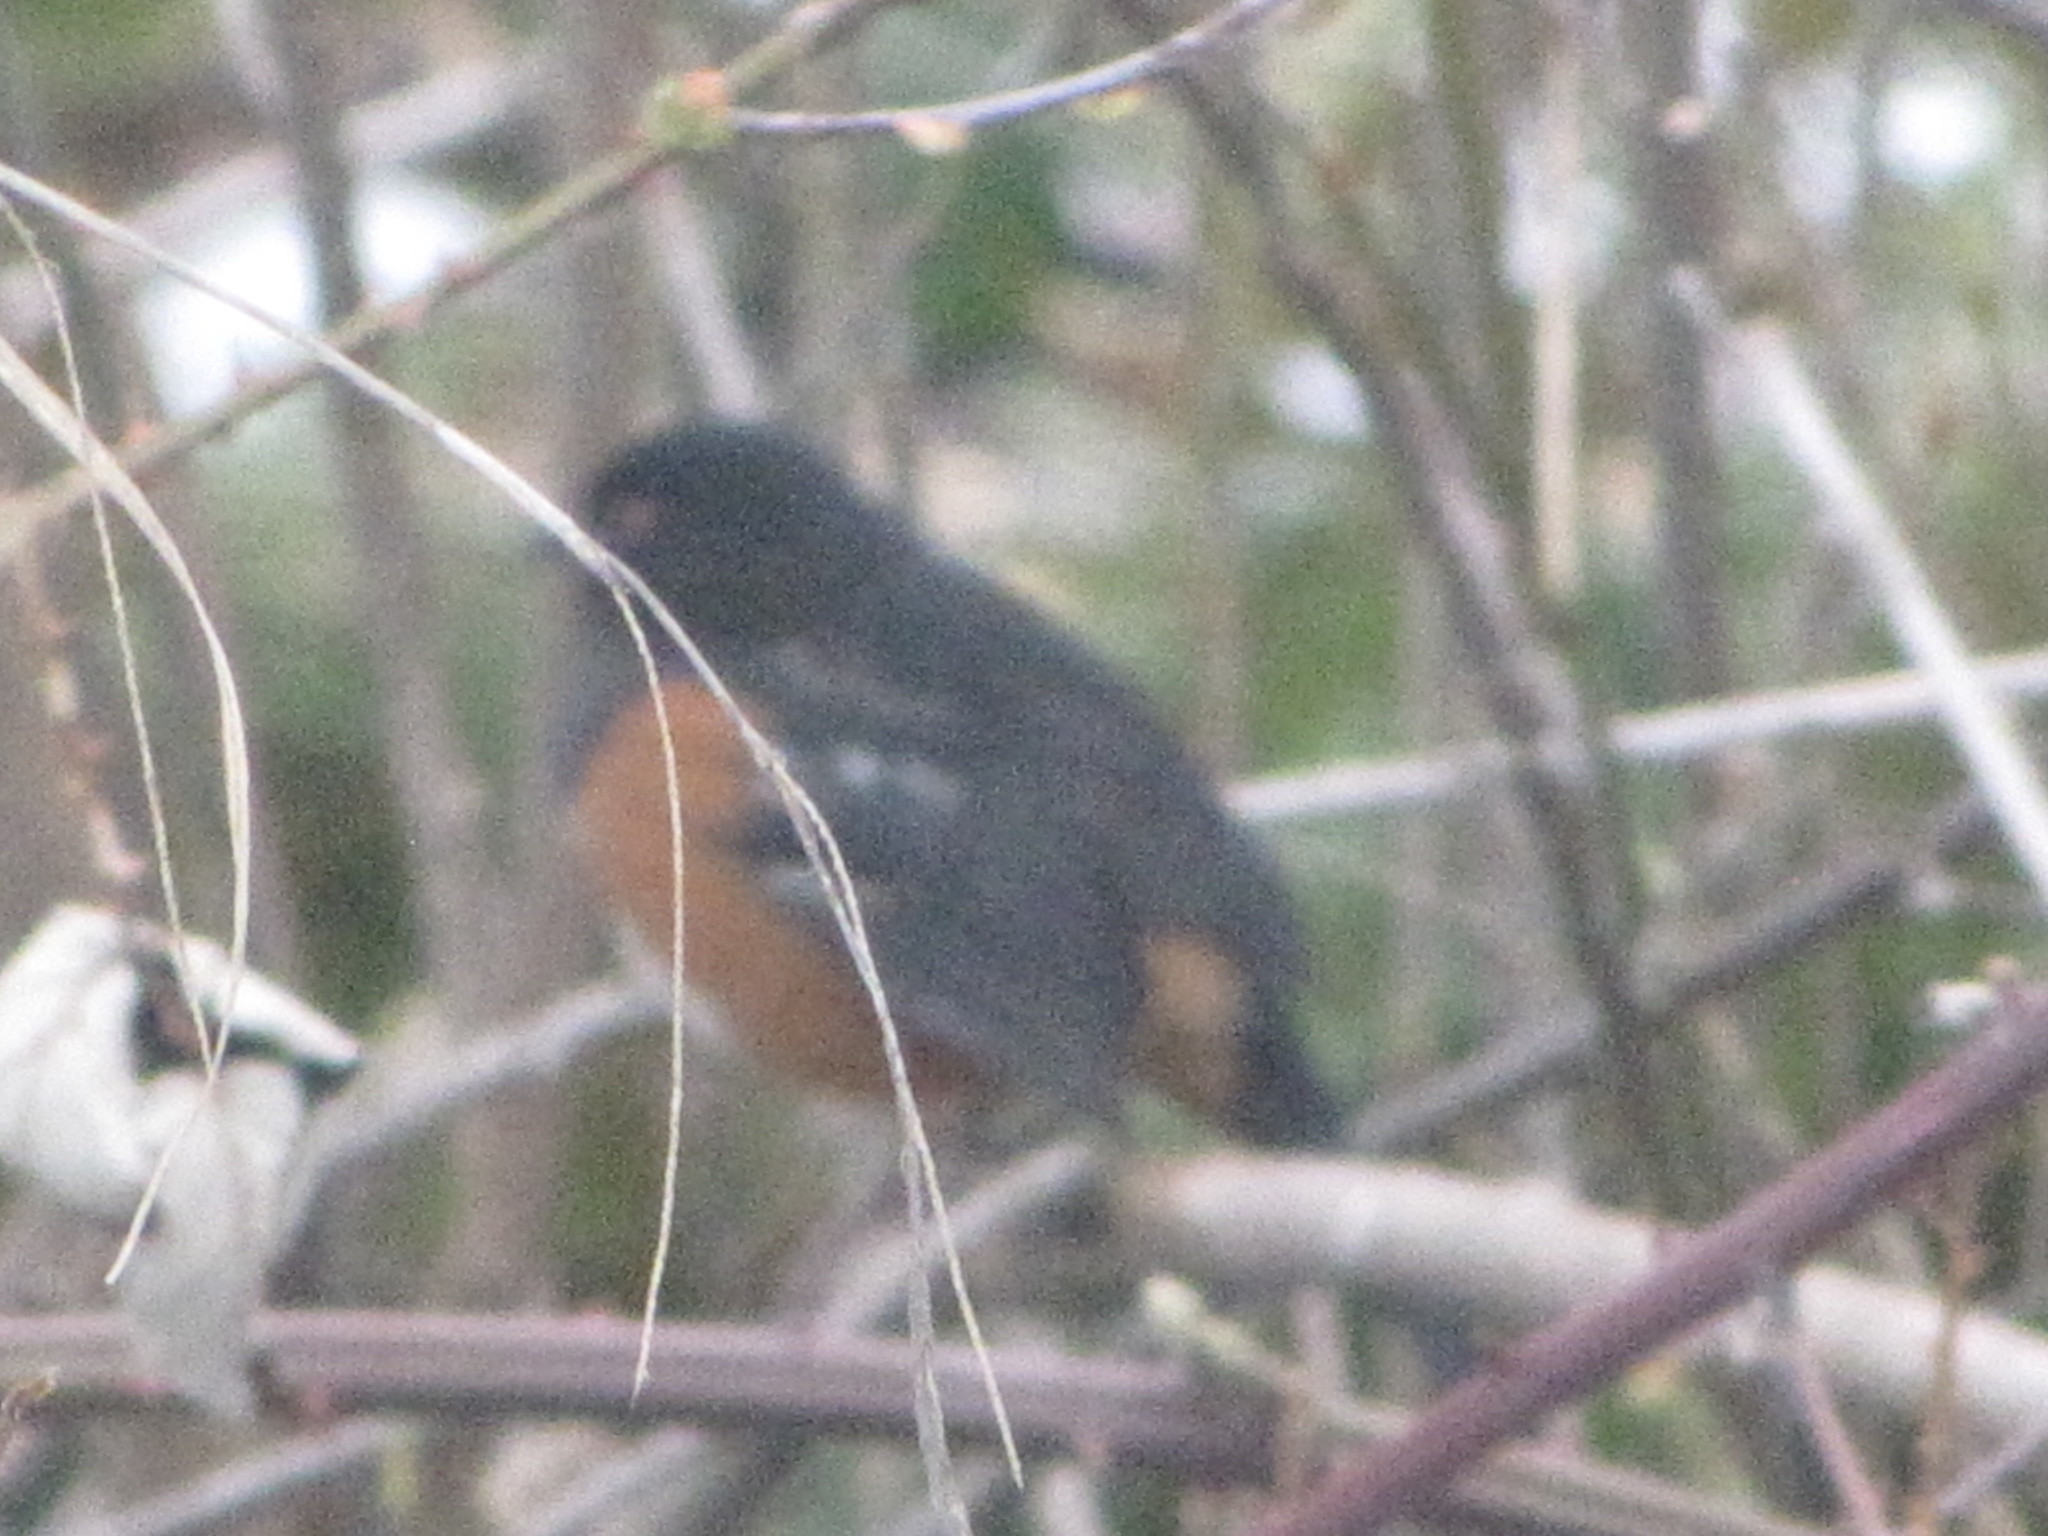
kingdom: Animalia
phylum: Chordata
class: Aves
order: Passeriformes
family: Passerellidae
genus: Pipilo
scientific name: Pipilo maculatus
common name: Spotted towhee
